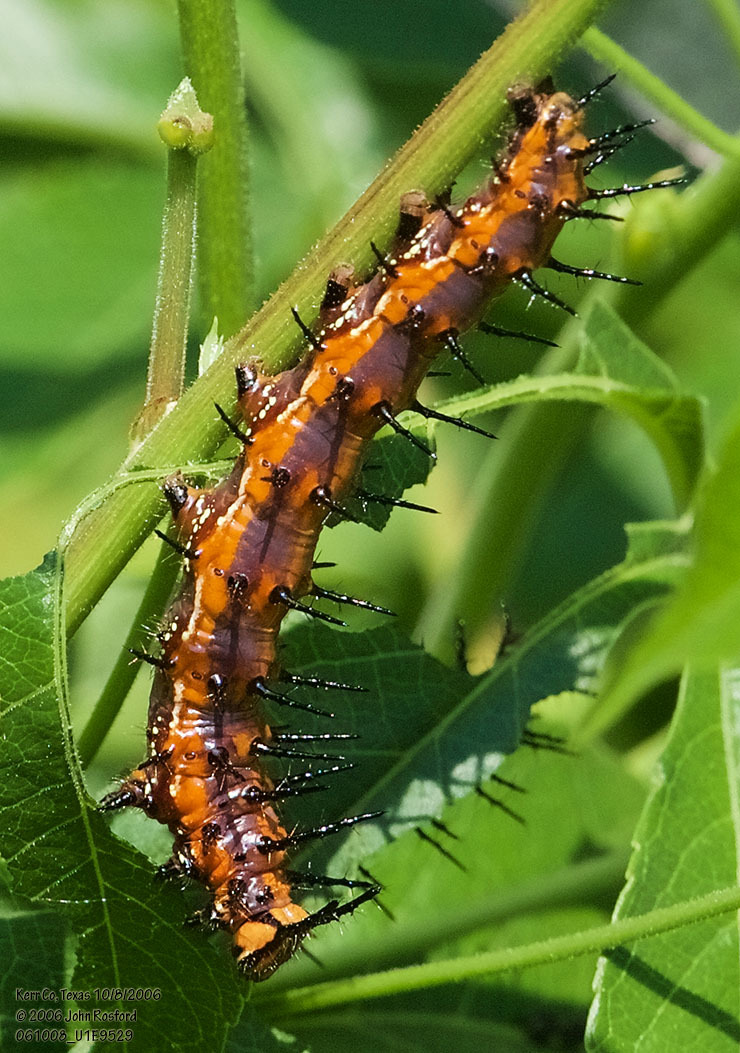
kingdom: Animalia
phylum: Arthropoda
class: Insecta
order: Lepidoptera
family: Nymphalidae
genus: Dione
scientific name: Dione vanillae
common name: Gulf fritillary
